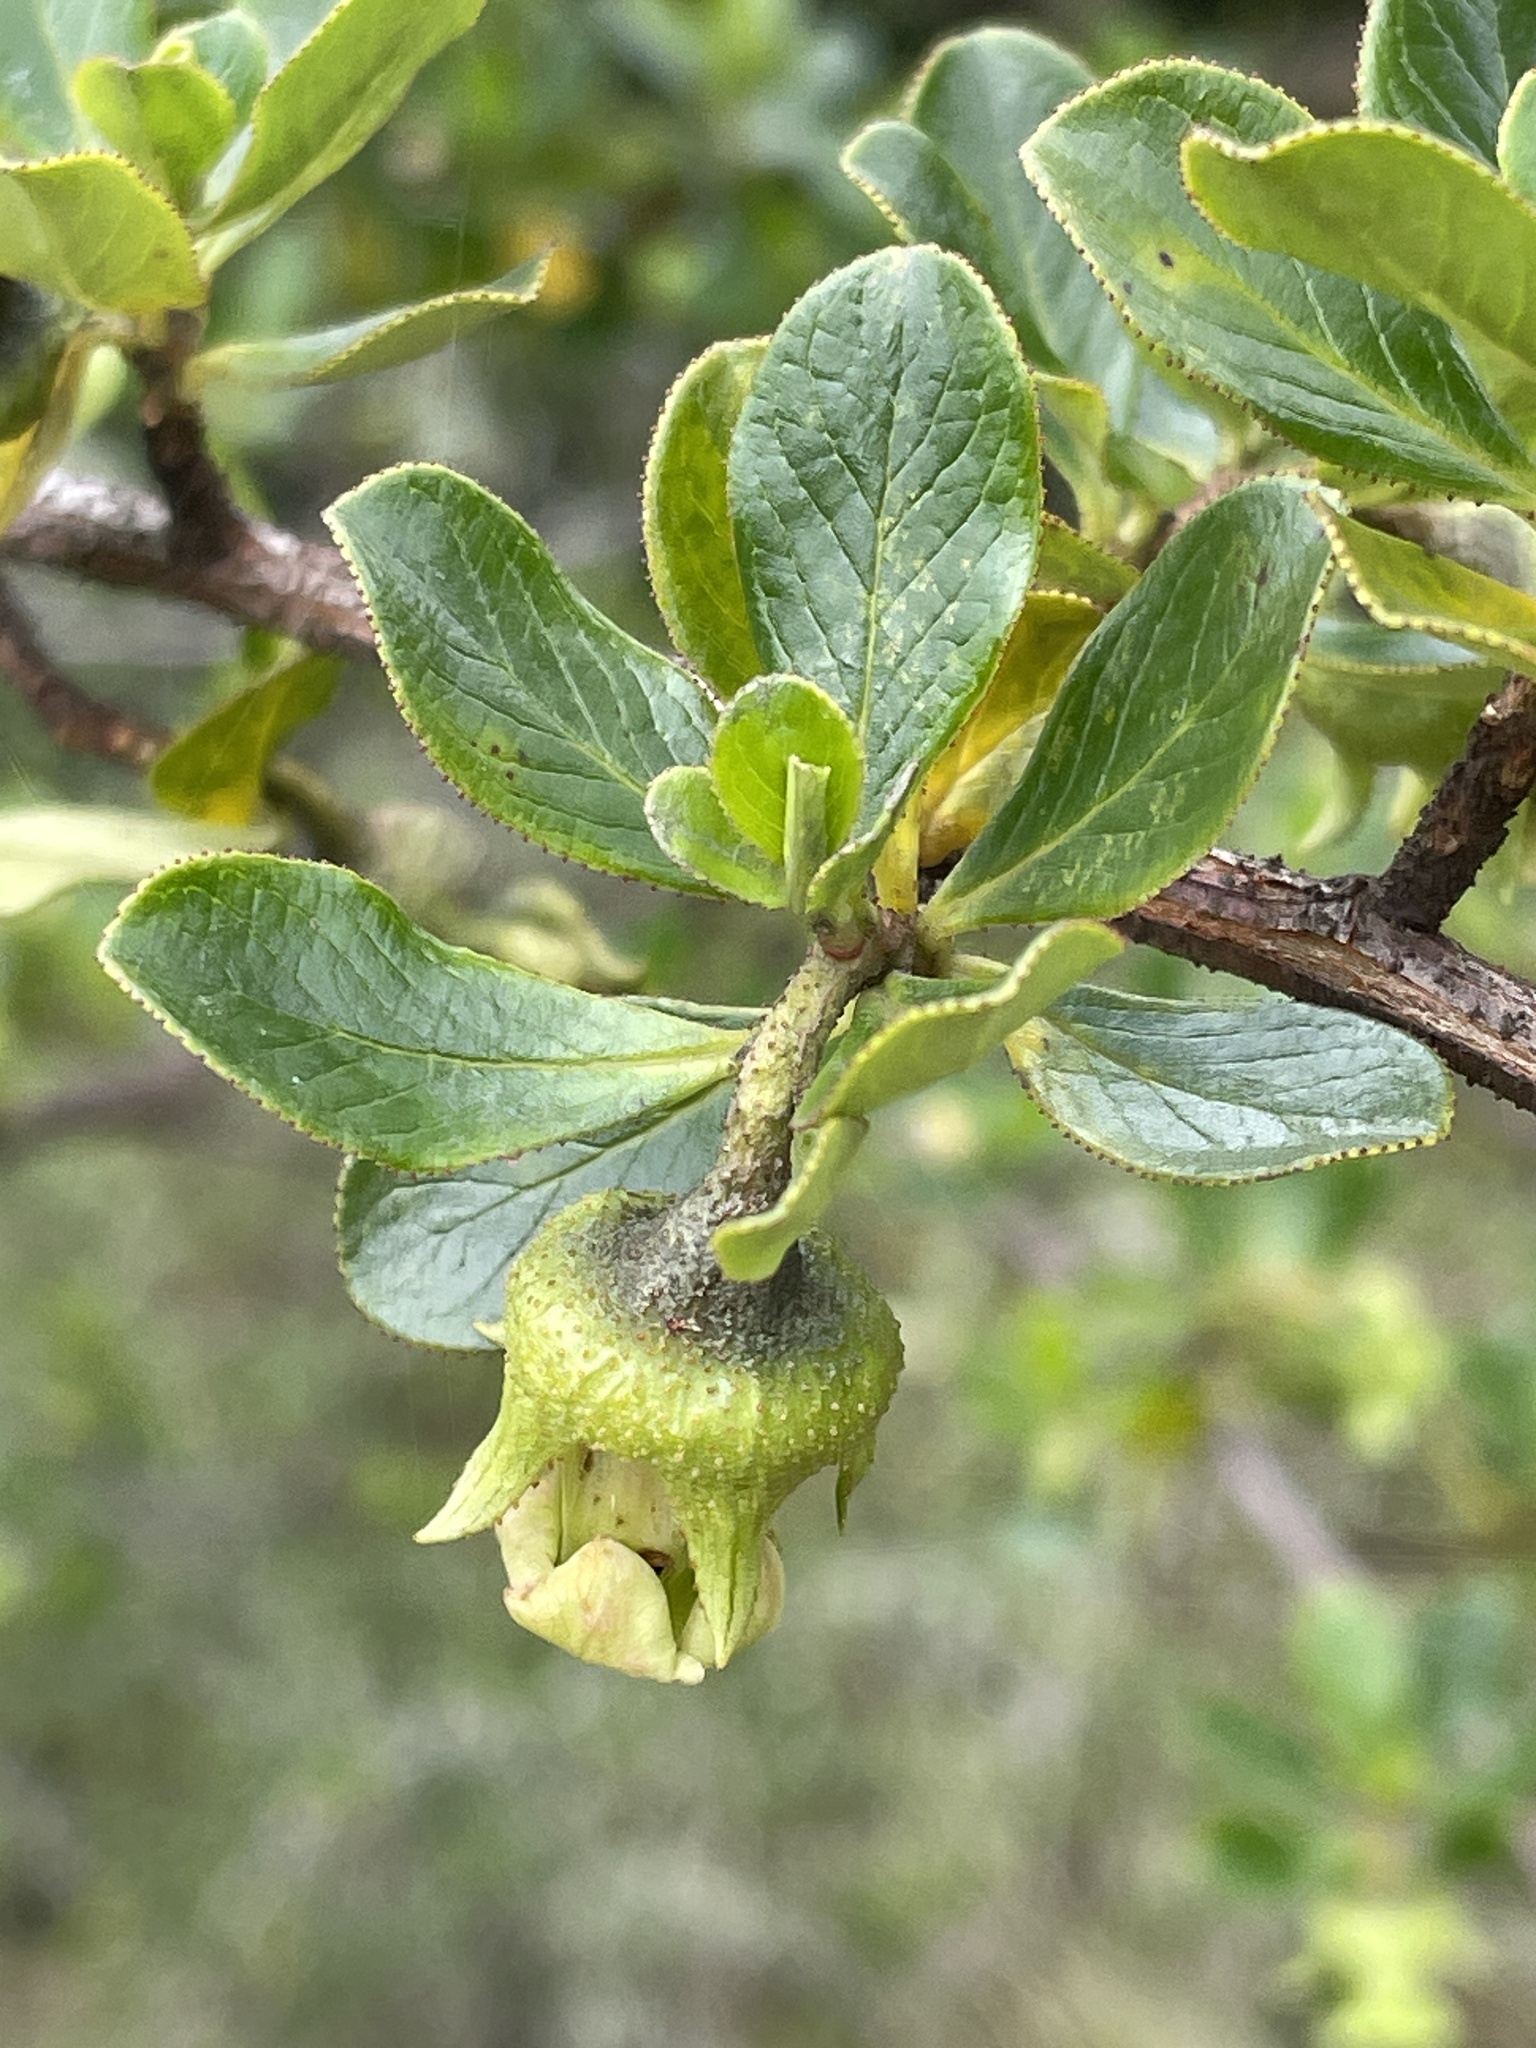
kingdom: Plantae
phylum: Tracheophyta
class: Magnoliopsida
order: Escalloniales
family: Escalloniaceae
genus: Escallonia
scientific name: Escallonia myrtilloides
